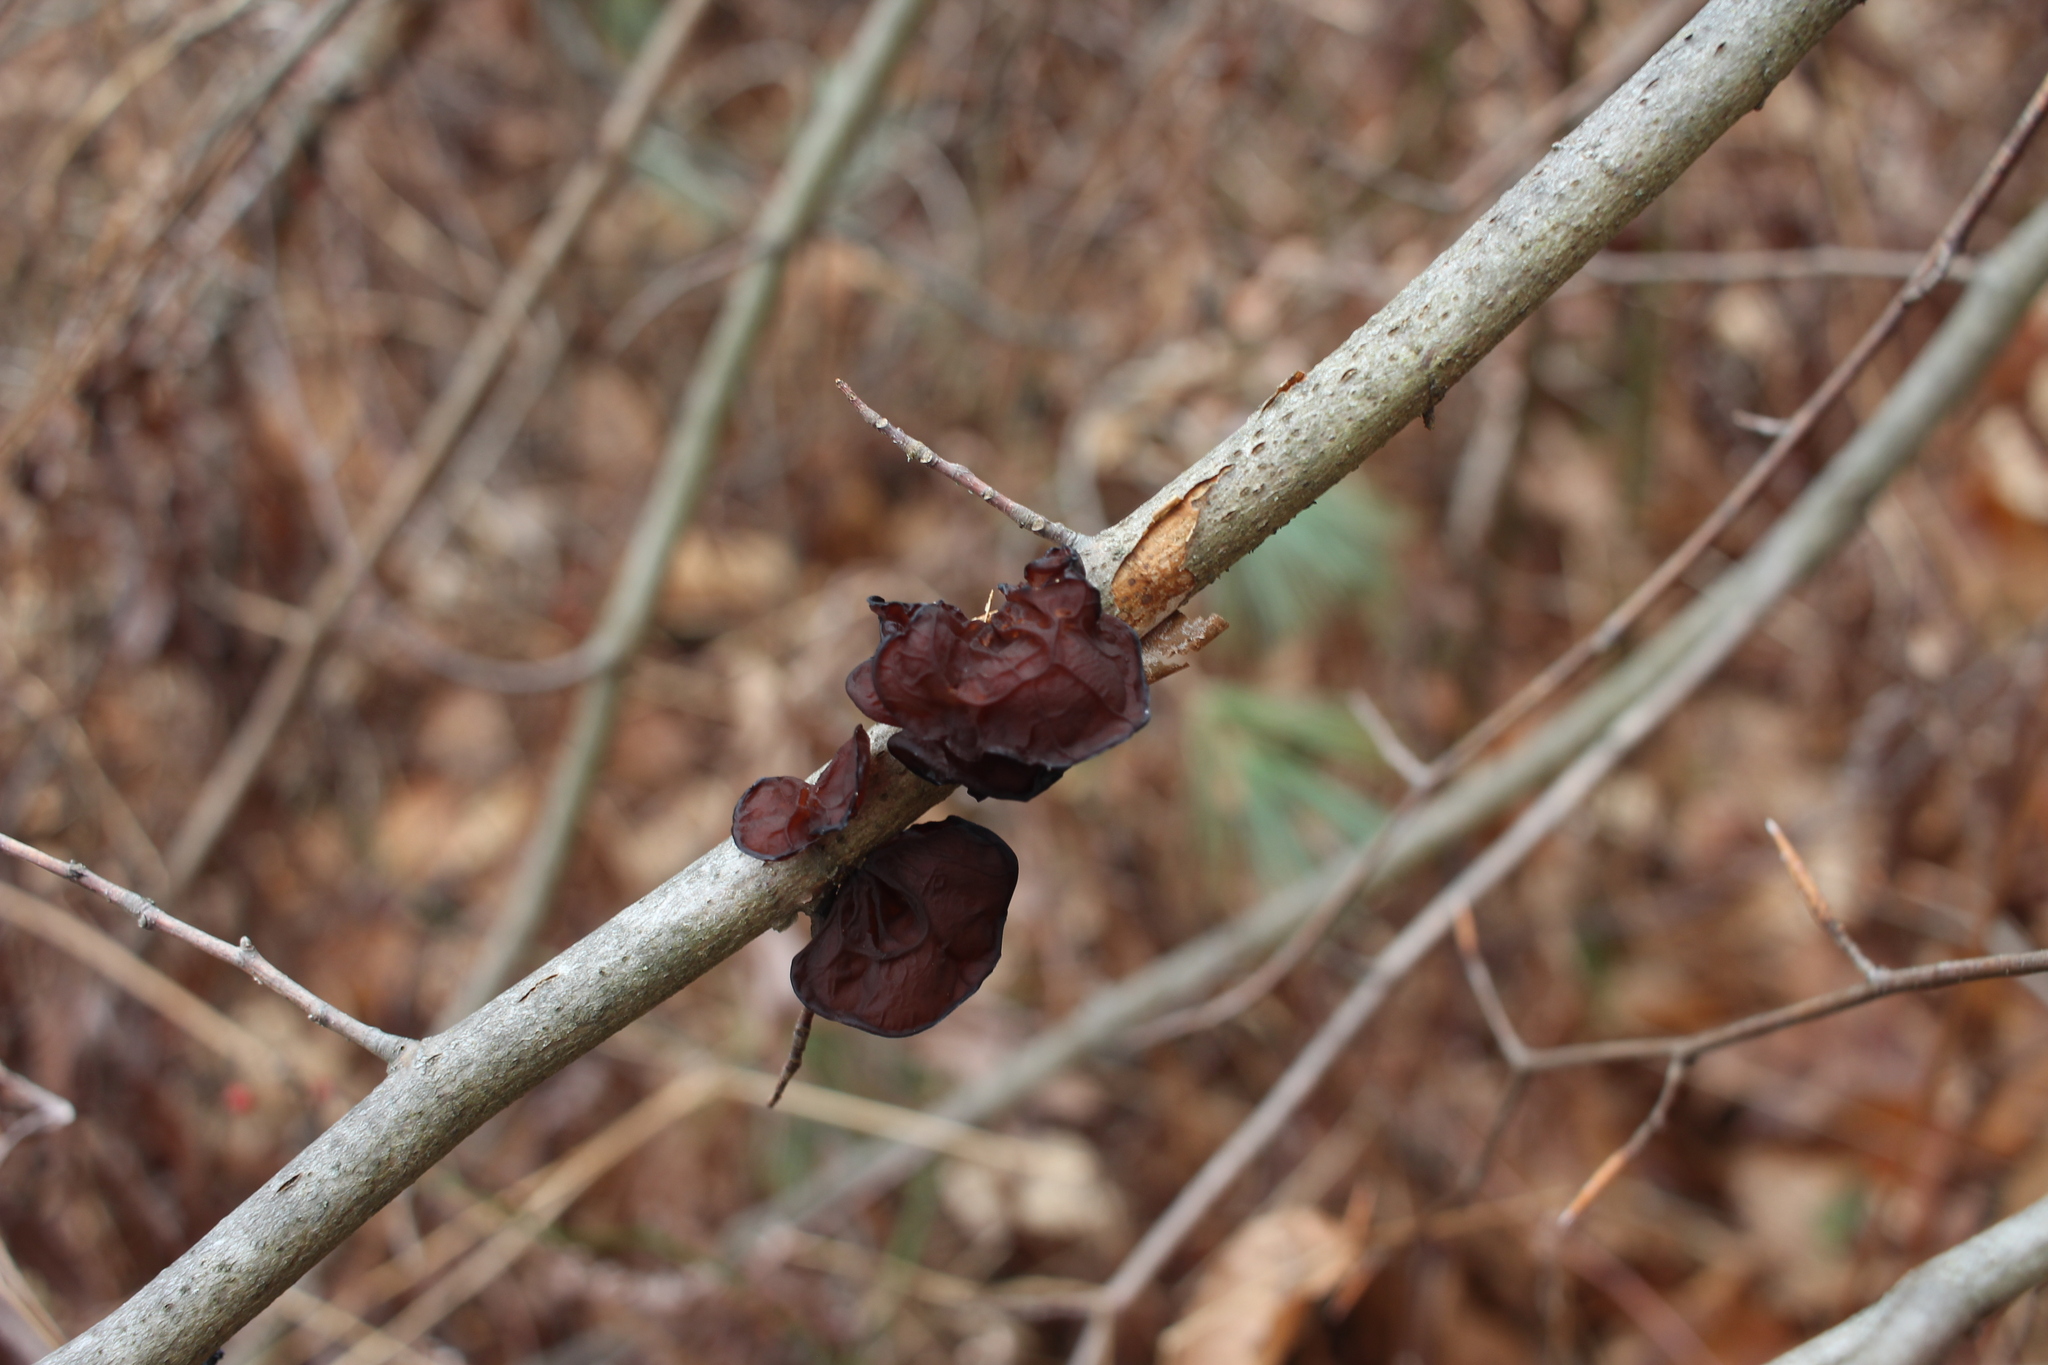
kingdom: Fungi
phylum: Basidiomycota
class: Agaricomycetes
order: Auriculariales
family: Auriculariaceae
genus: Auricularia
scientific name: Auricularia americana
